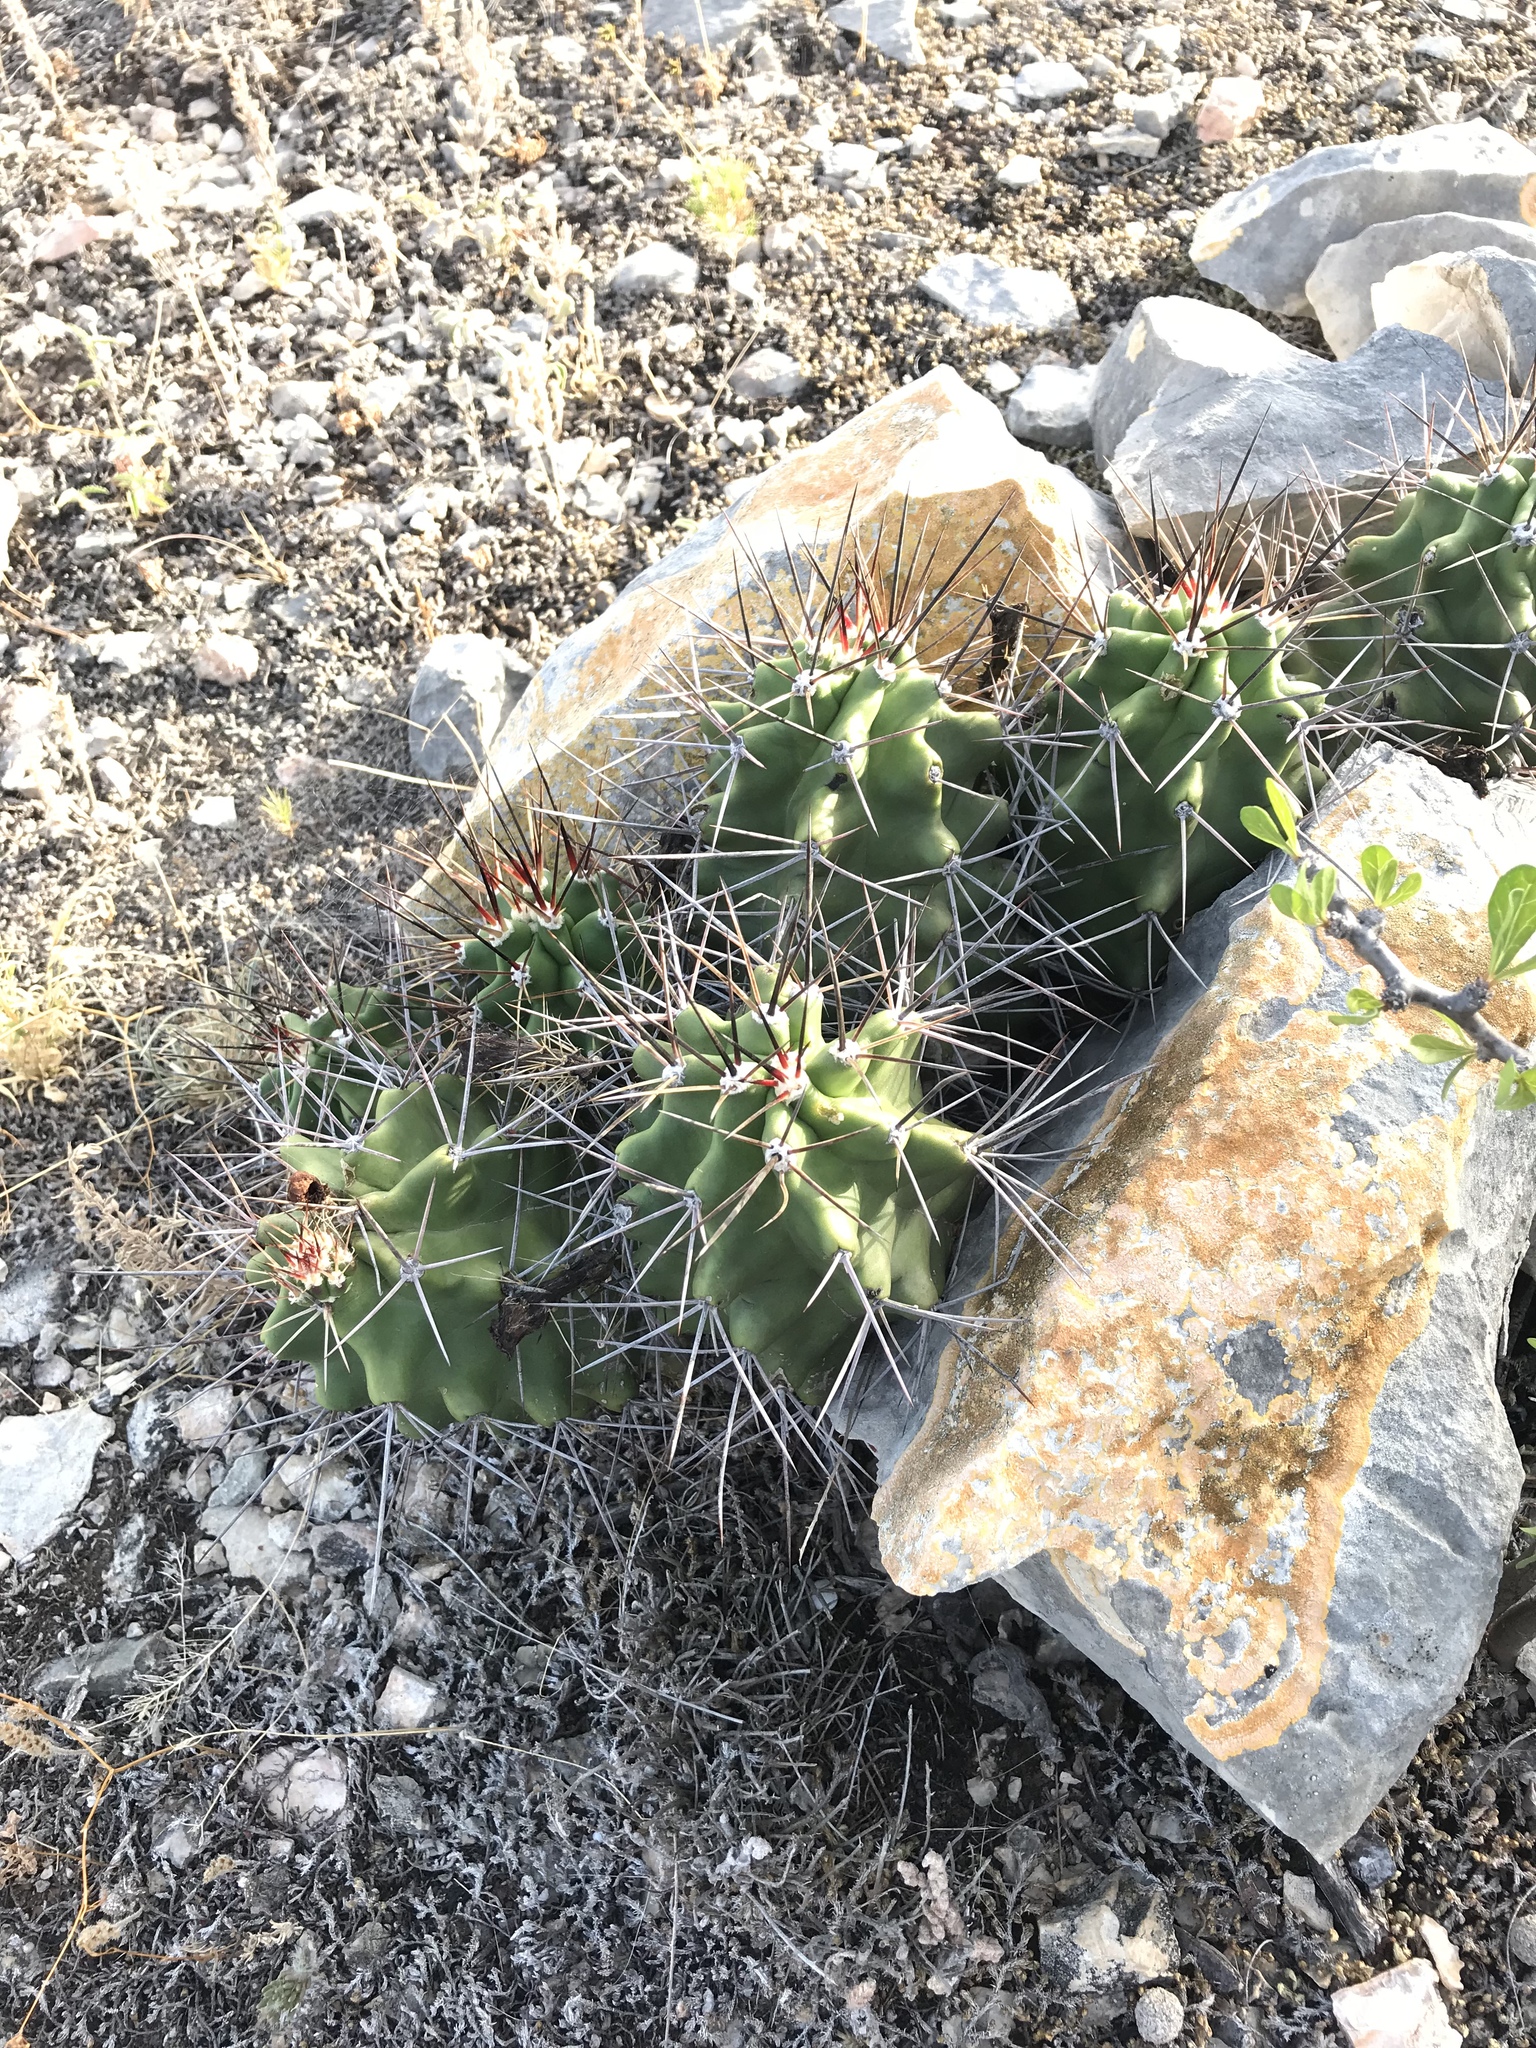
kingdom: Plantae
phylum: Tracheophyta
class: Magnoliopsida
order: Caryophyllales
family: Cactaceae
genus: Echinocereus
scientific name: Echinocereus coccineus
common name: Scarlet hedgehog cactus
